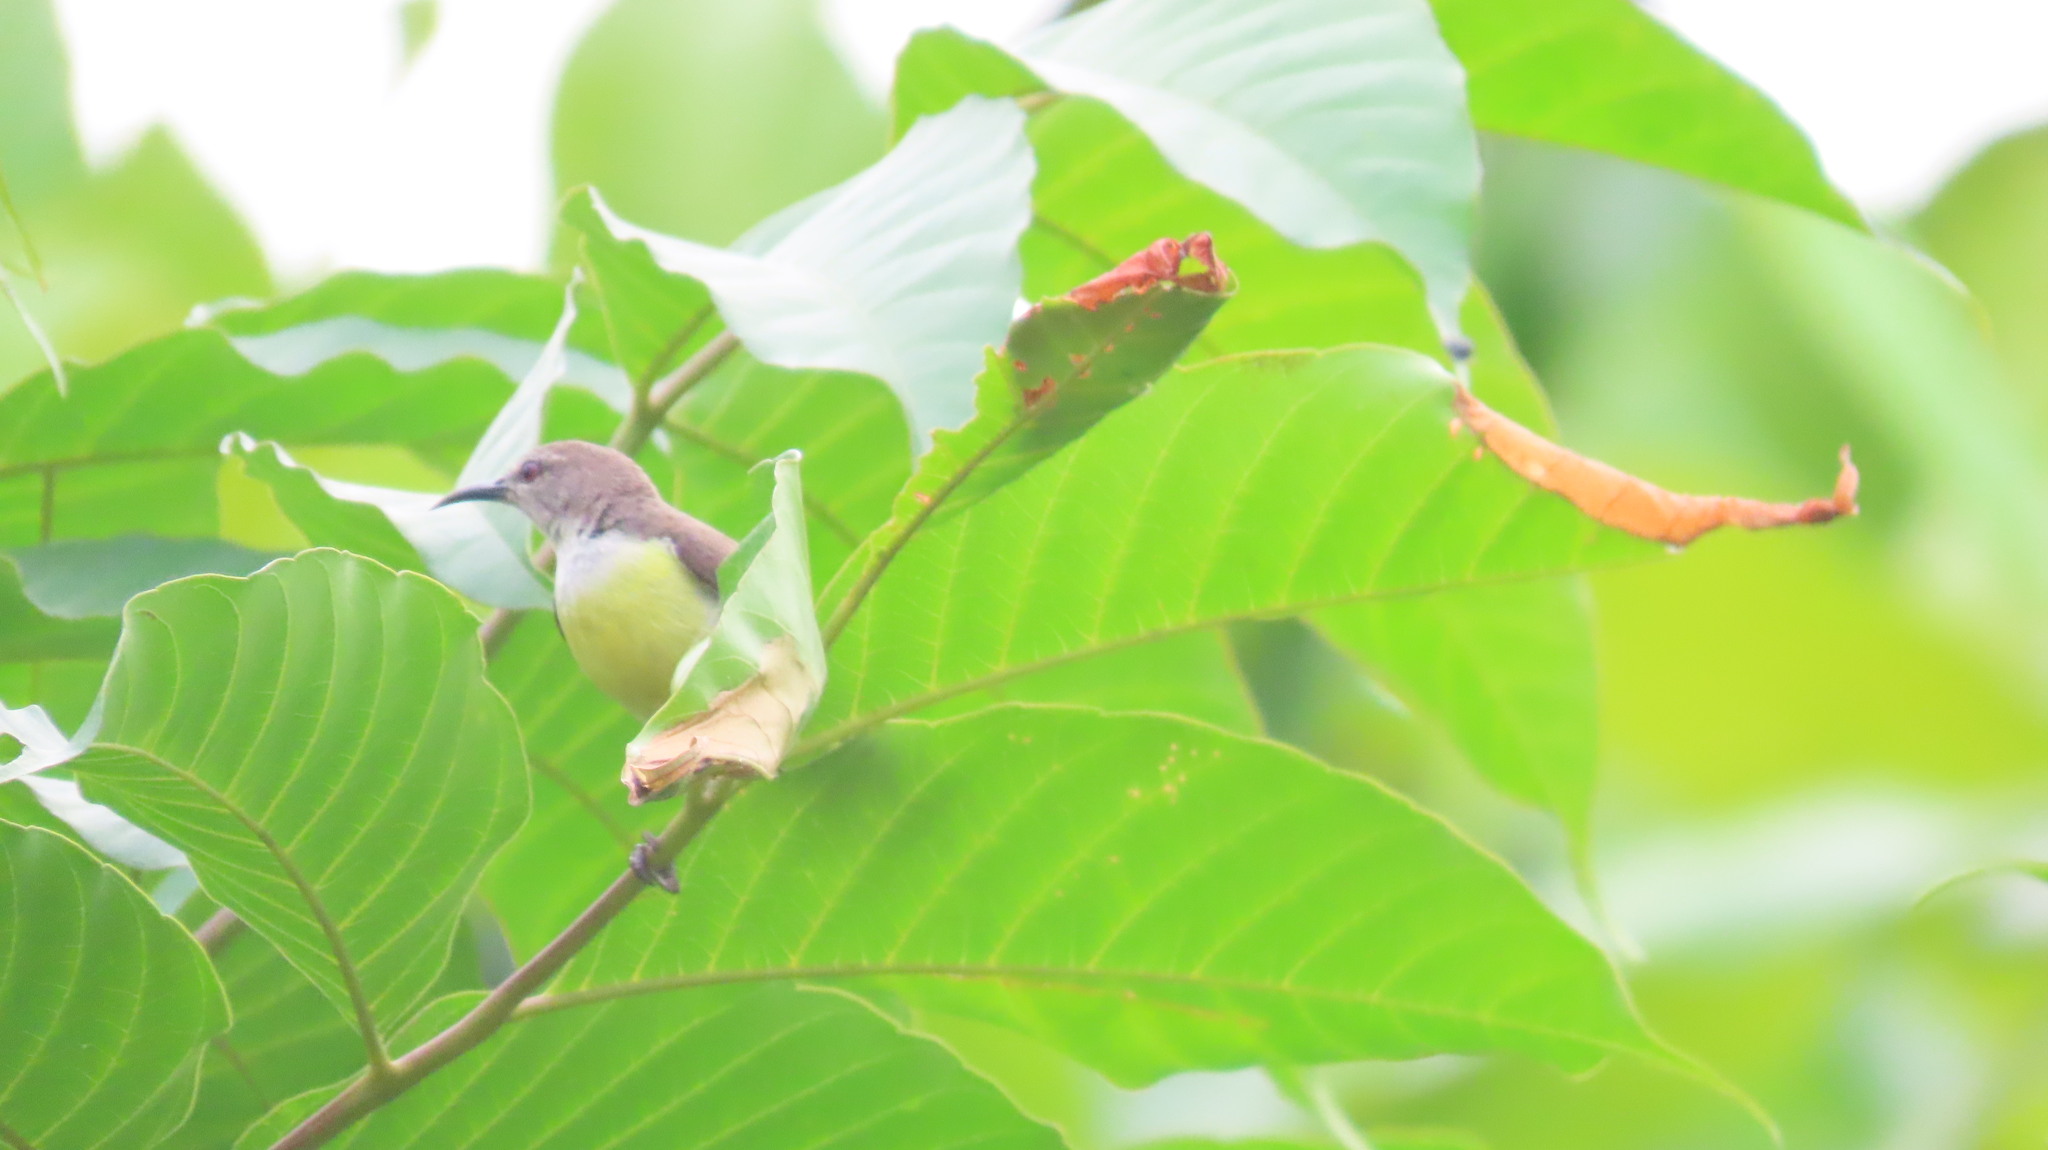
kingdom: Animalia
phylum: Chordata
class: Aves
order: Passeriformes
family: Nectariniidae
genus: Leptocoma
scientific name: Leptocoma zeylonica
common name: Purple-rumped sunbird
